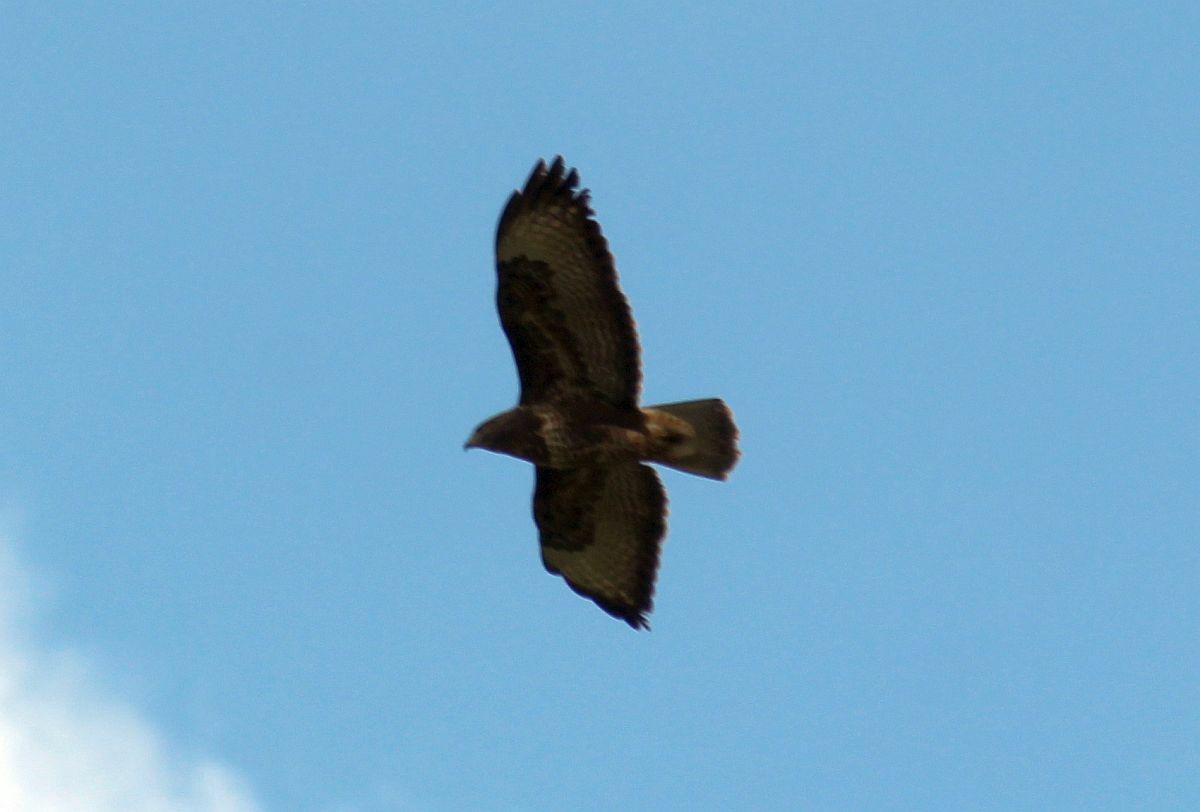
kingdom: Animalia
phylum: Chordata
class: Aves
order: Accipitriformes
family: Accipitridae
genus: Buteo
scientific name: Buteo buteo
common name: Common buzzard
